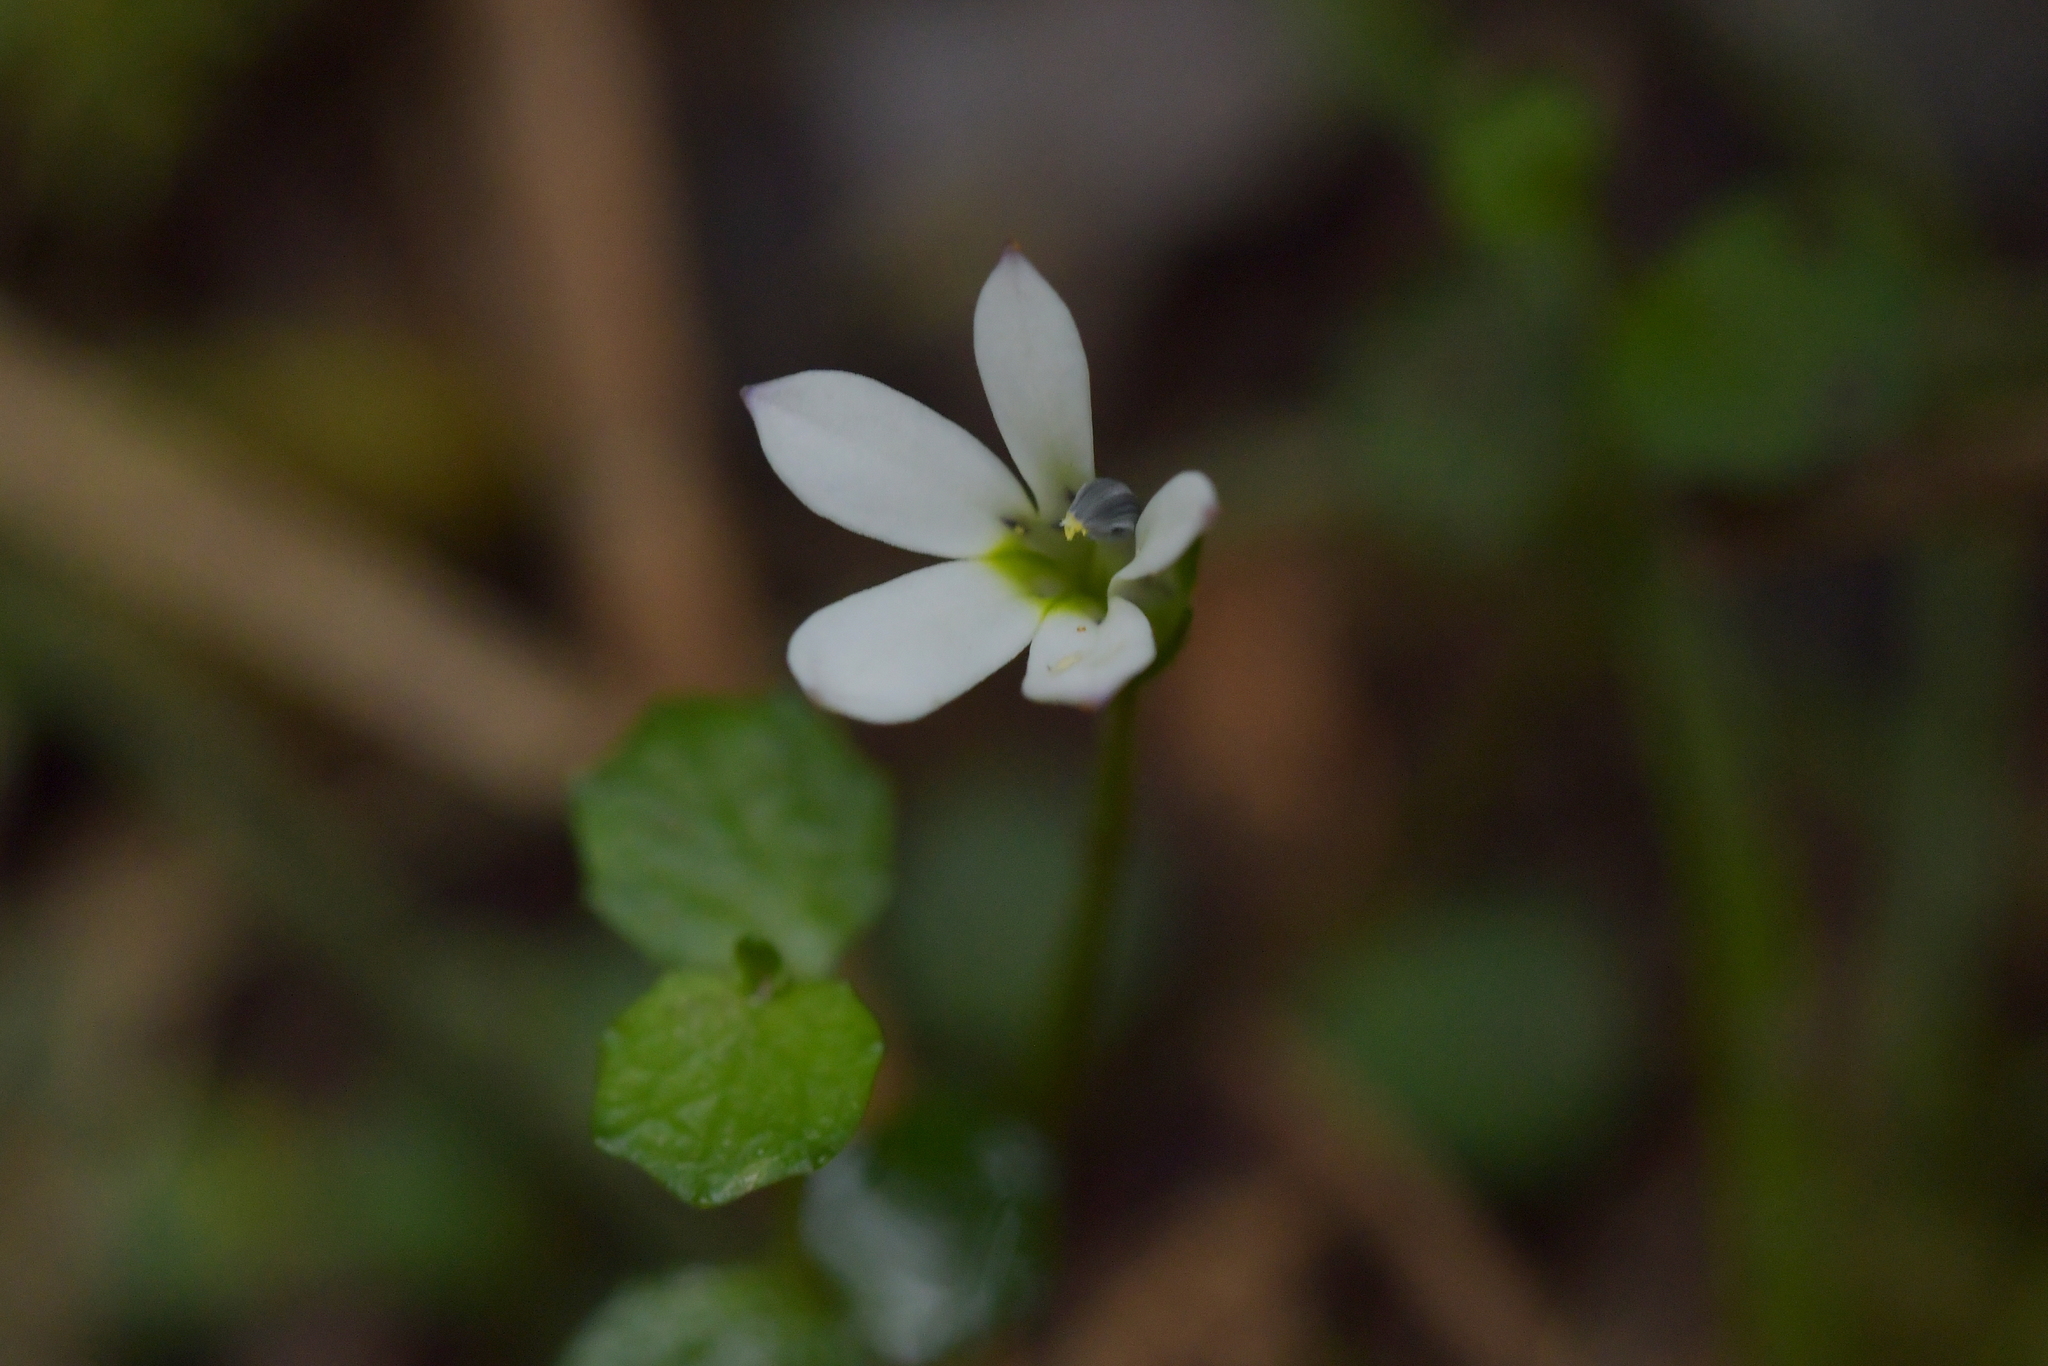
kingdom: Plantae
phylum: Tracheophyta
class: Magnoliopsida
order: Asterales
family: Campanulaceae
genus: Lobelia
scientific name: Lobelia angulata
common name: Lawn lobelia
